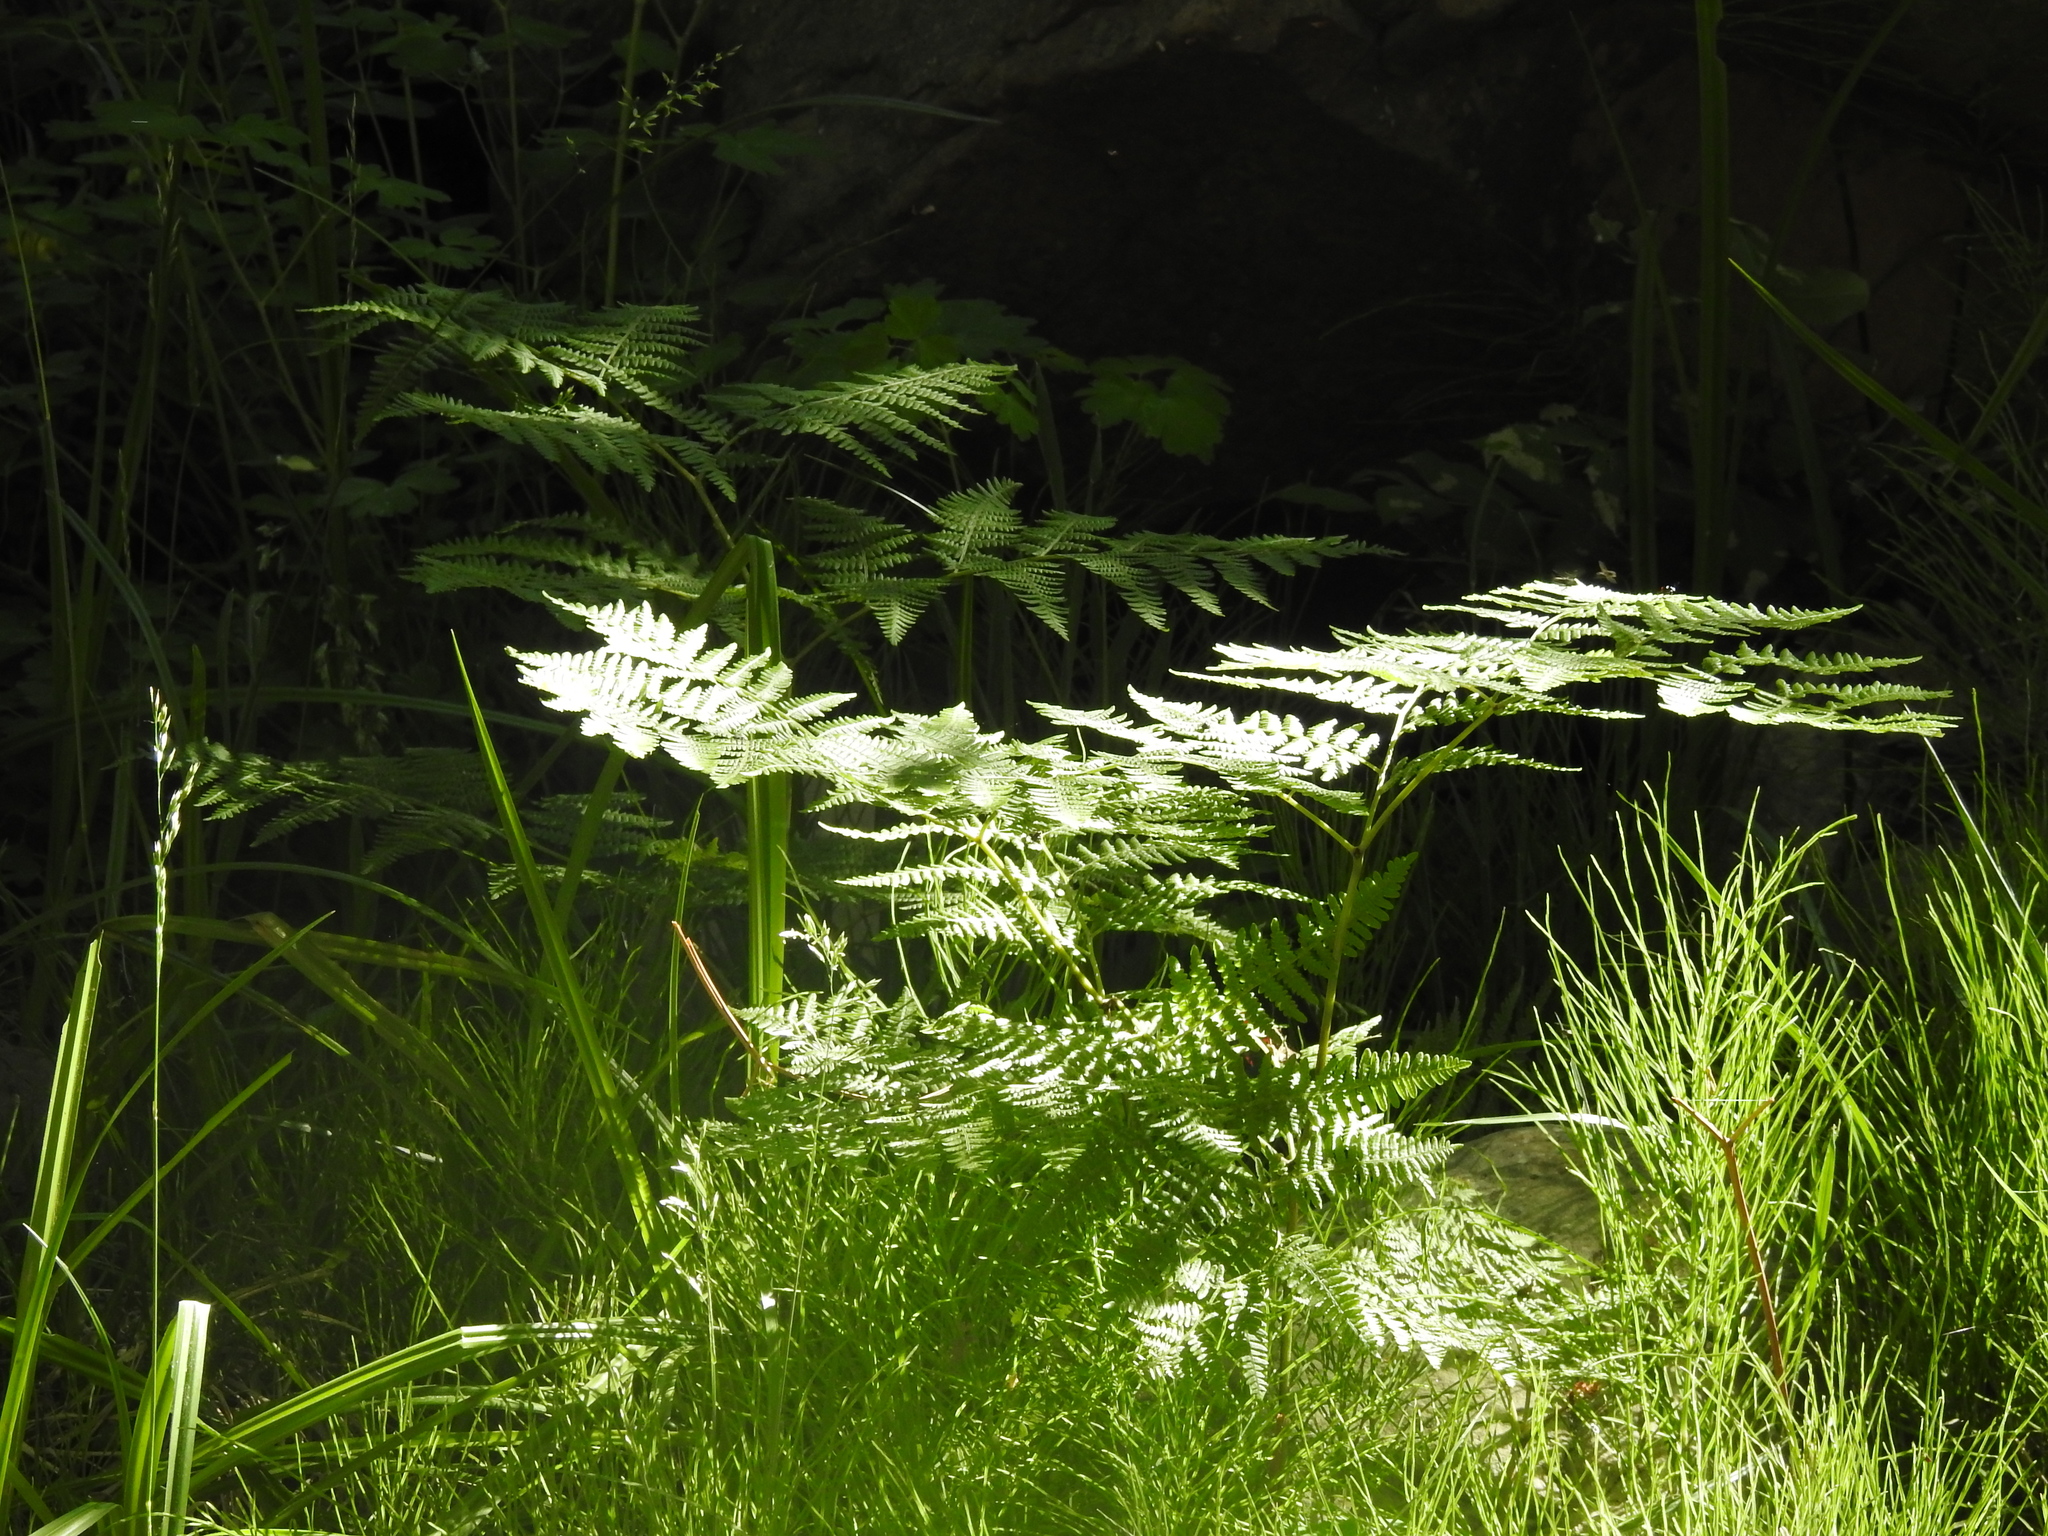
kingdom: Plantae
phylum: Tracheophyta
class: Polypodiopsida
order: Polypodiales
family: Dennstaedtiaceae
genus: Pteridium
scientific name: Pteridium aquilinum
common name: Bracken
